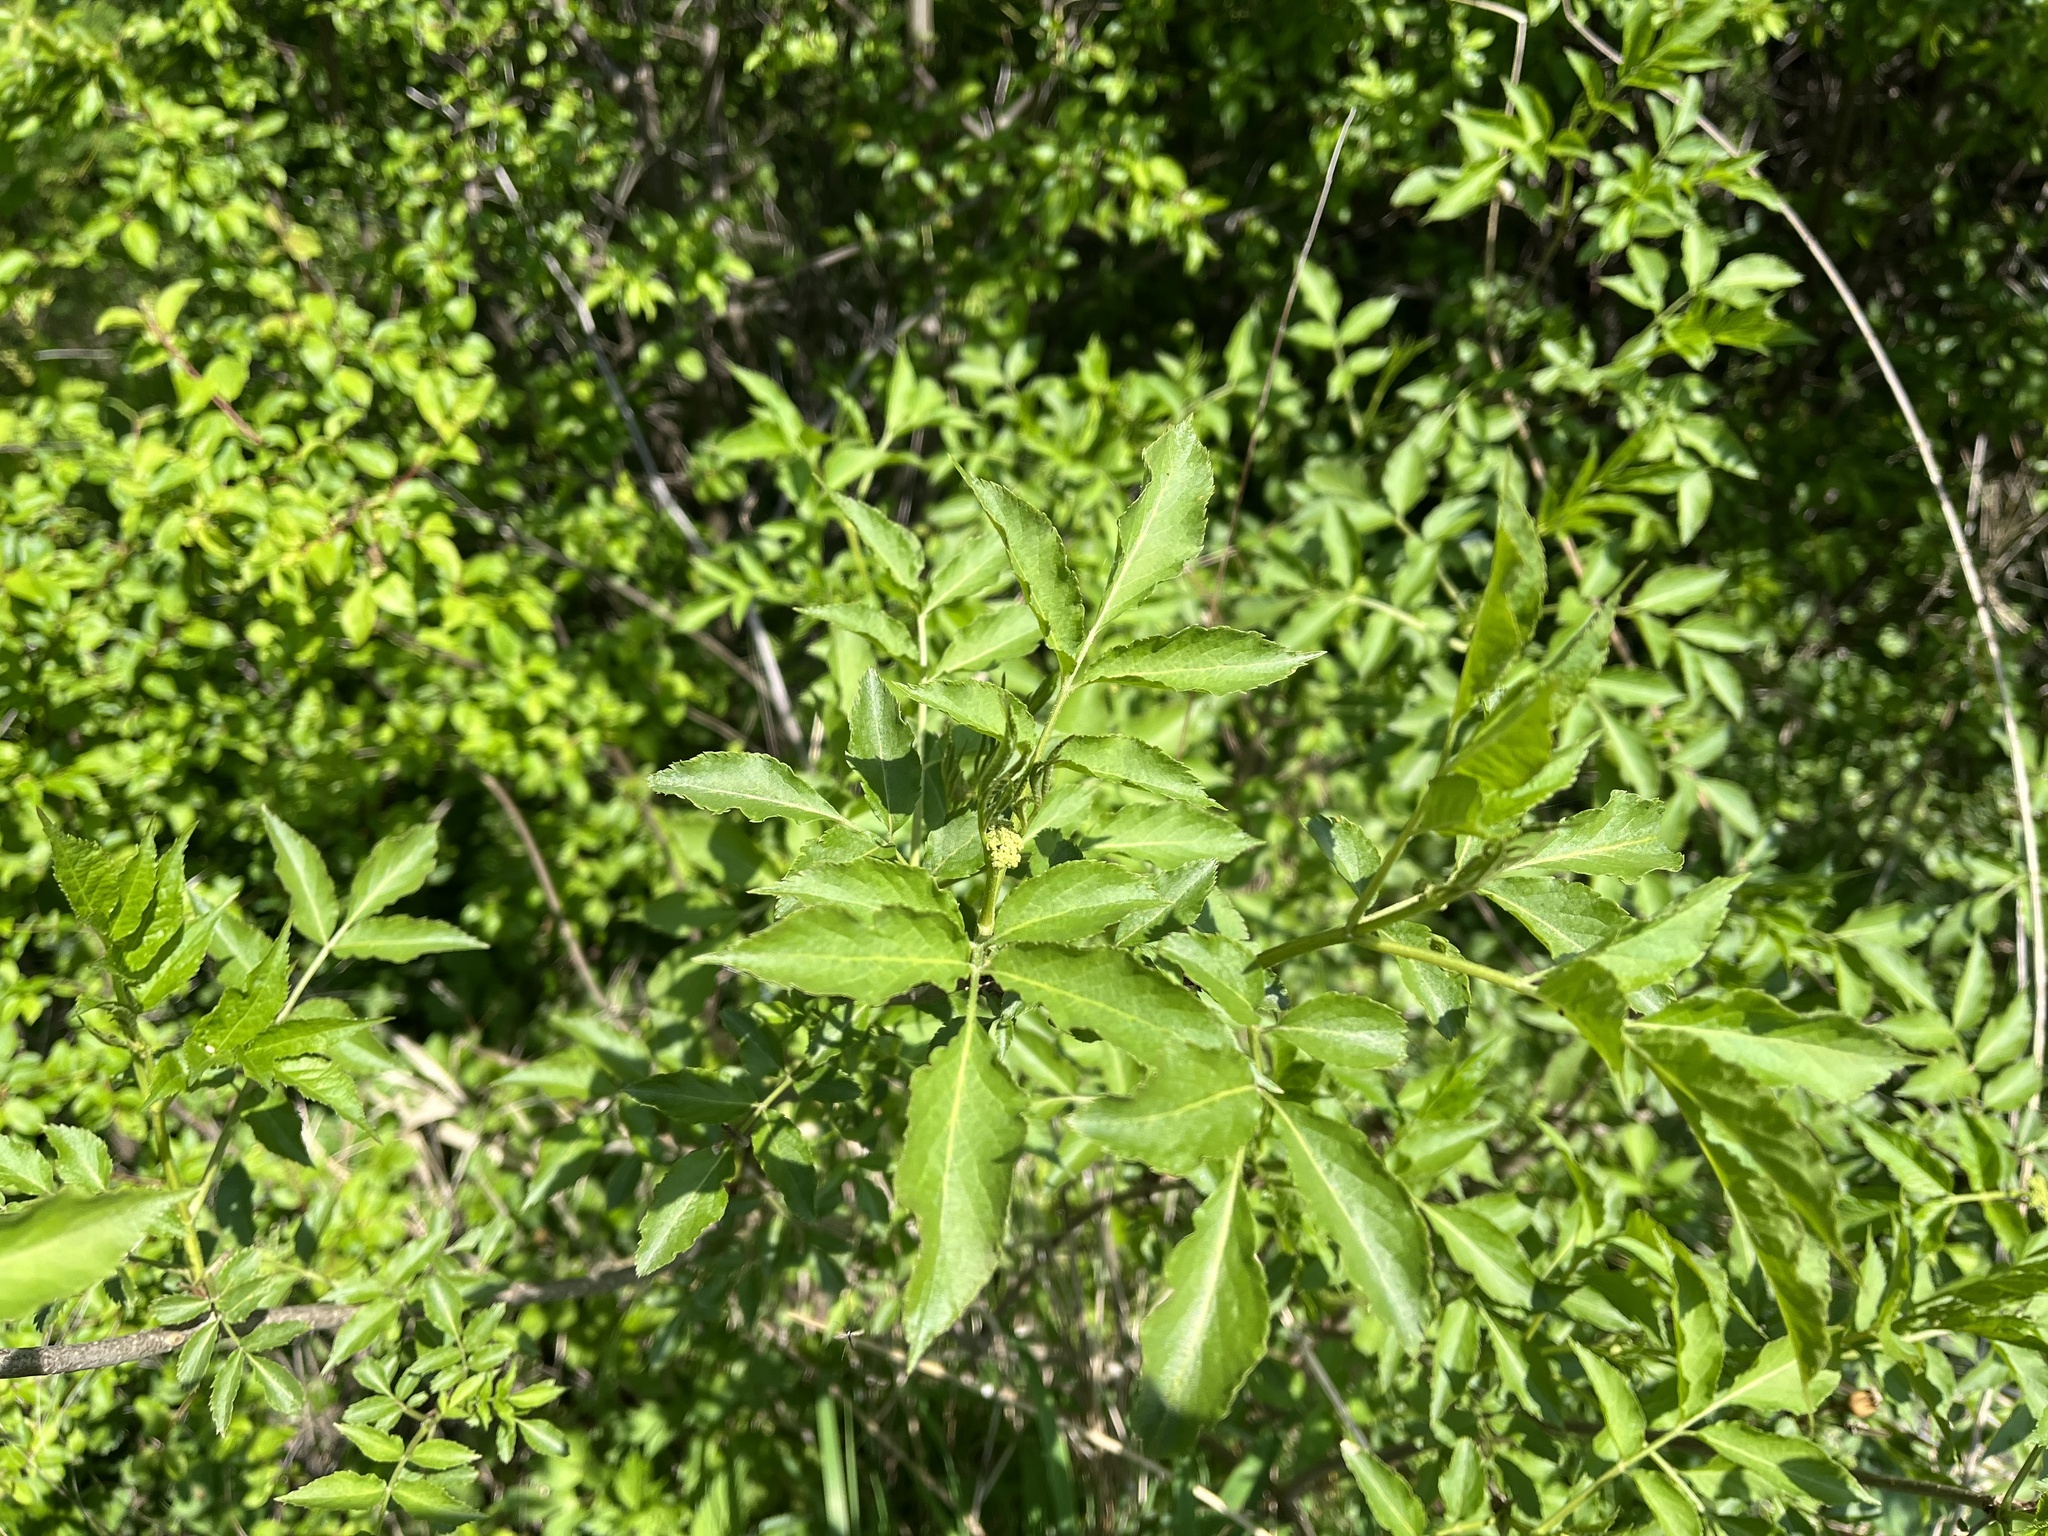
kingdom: Plantae
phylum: Tracheophyta
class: Magnoliopsida
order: Dipsacales
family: Viburnaceae
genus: Sambucus
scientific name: Sambucus nigra
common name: Elder
